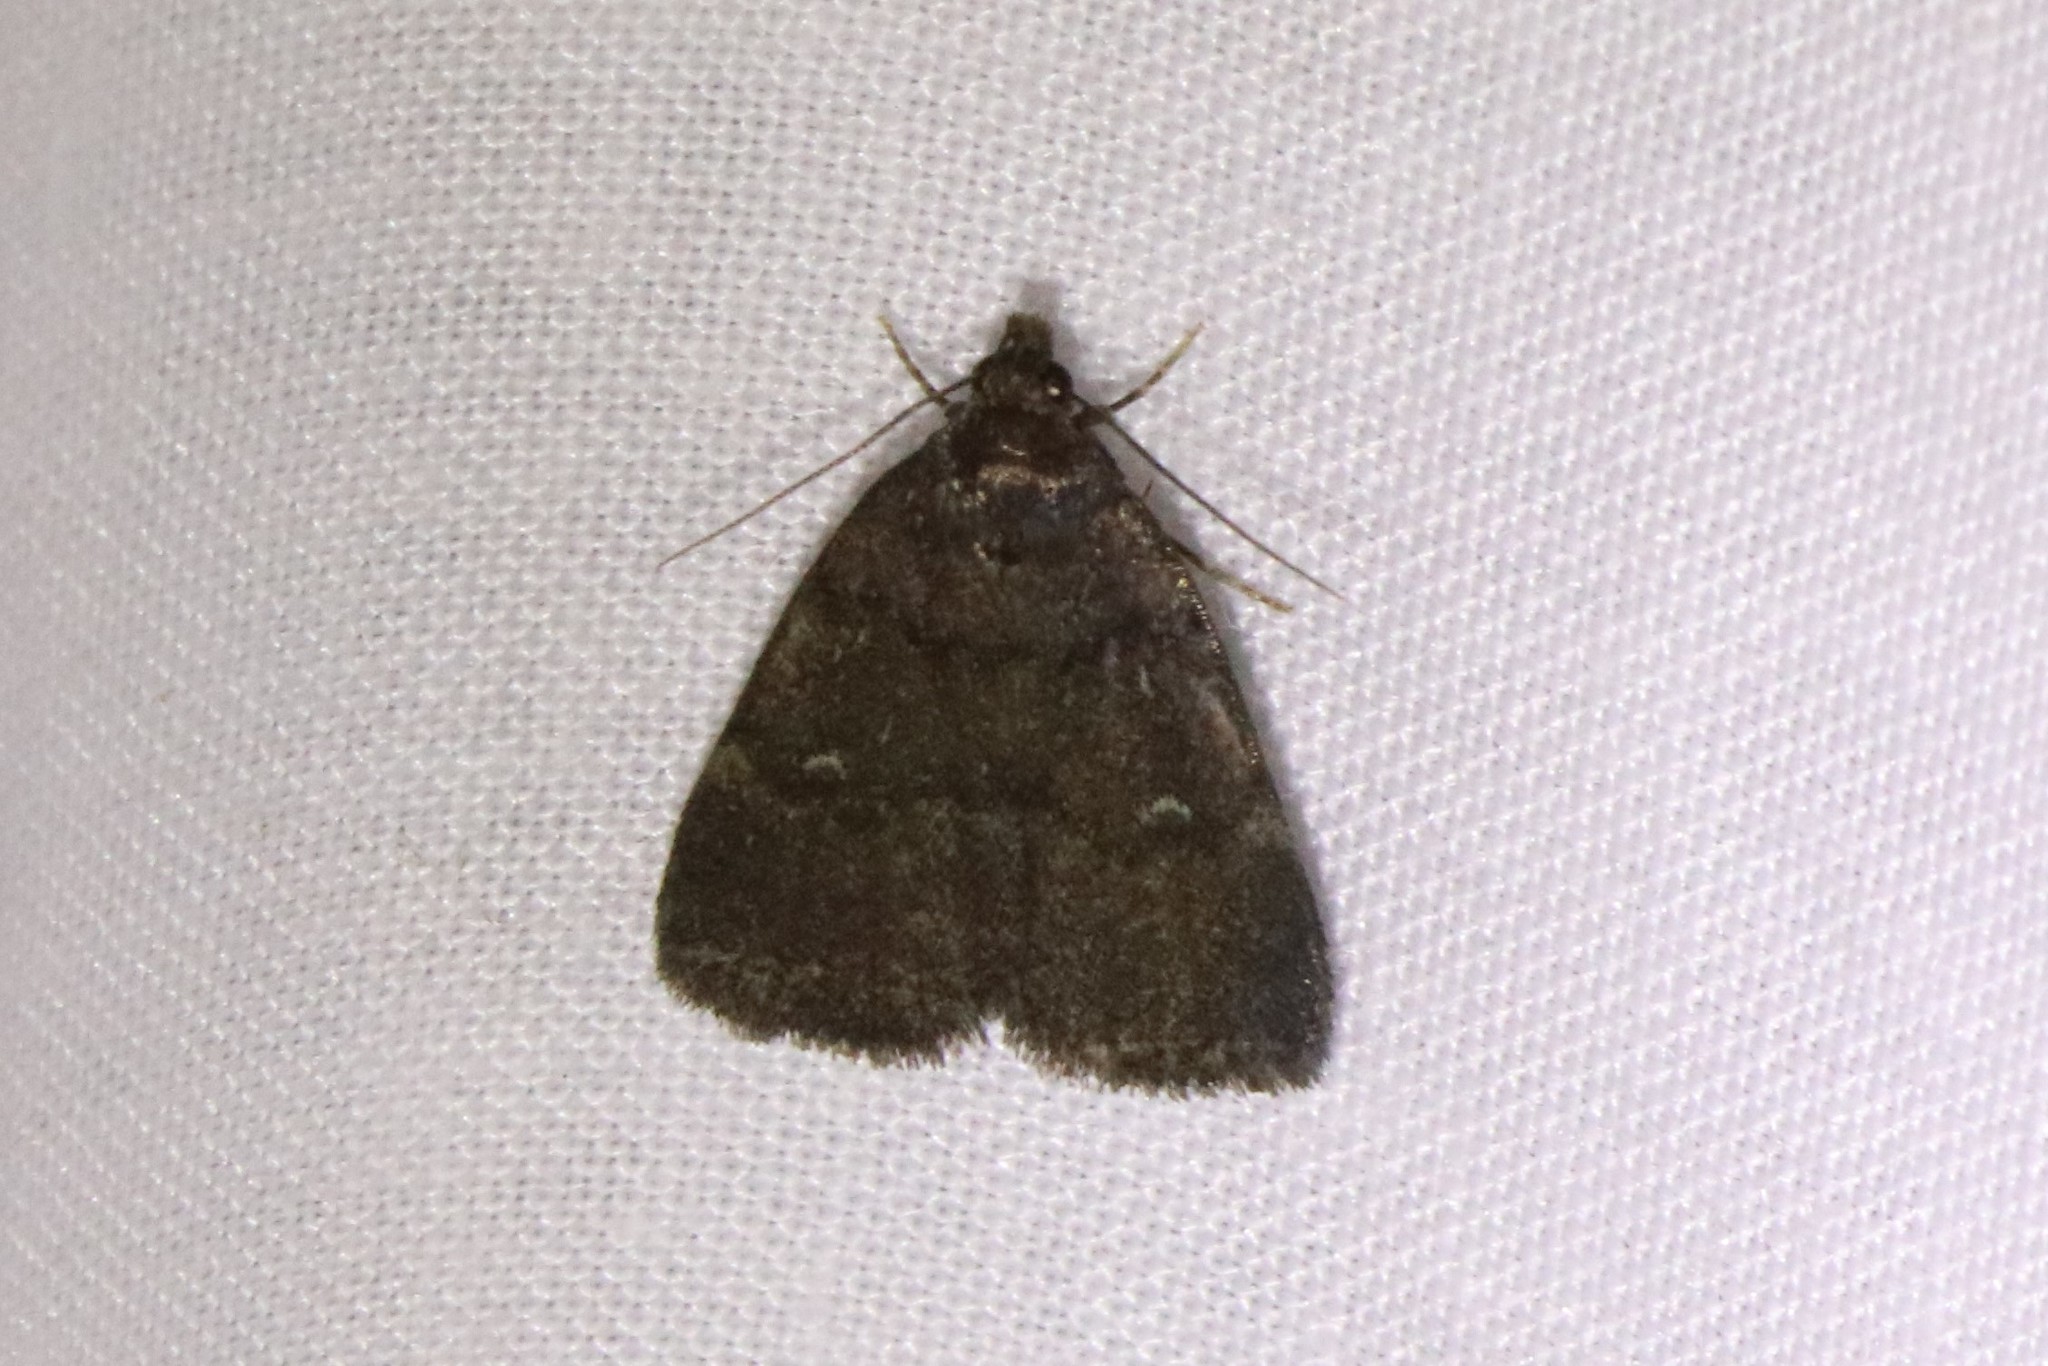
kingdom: Animalia
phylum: Arthropoda
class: Insecta
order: Lepidoptera
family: Erebidae
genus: Idia
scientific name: Idia rotundalis
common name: Rotund idia moth
